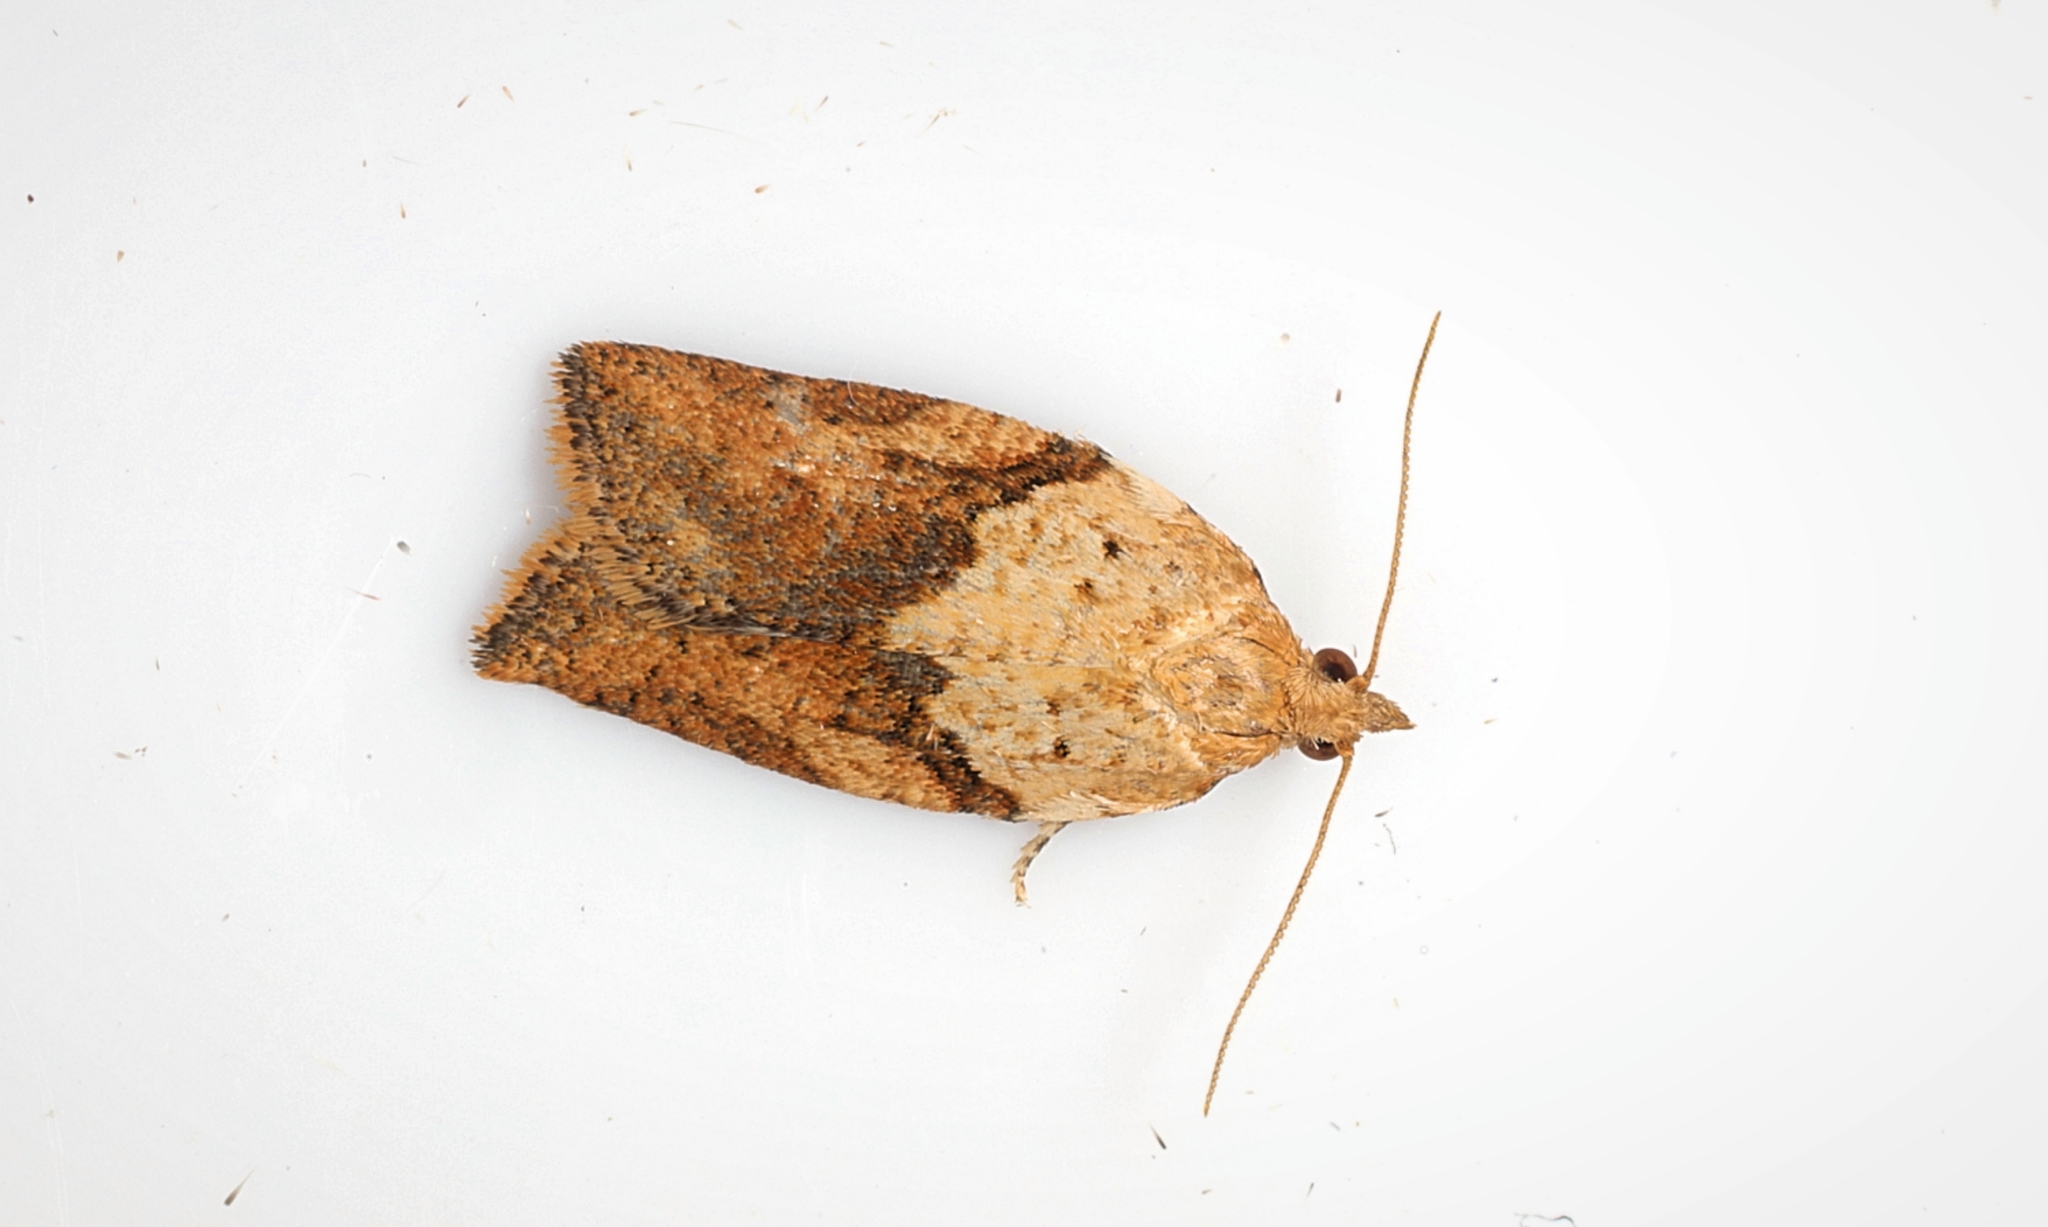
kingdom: Animalia
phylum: Arthropoda
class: Insecta
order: Lepidoptera
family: Tortricidae
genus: Epiphyas
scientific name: Epiphyas postvittana
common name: Light brown apple moth
